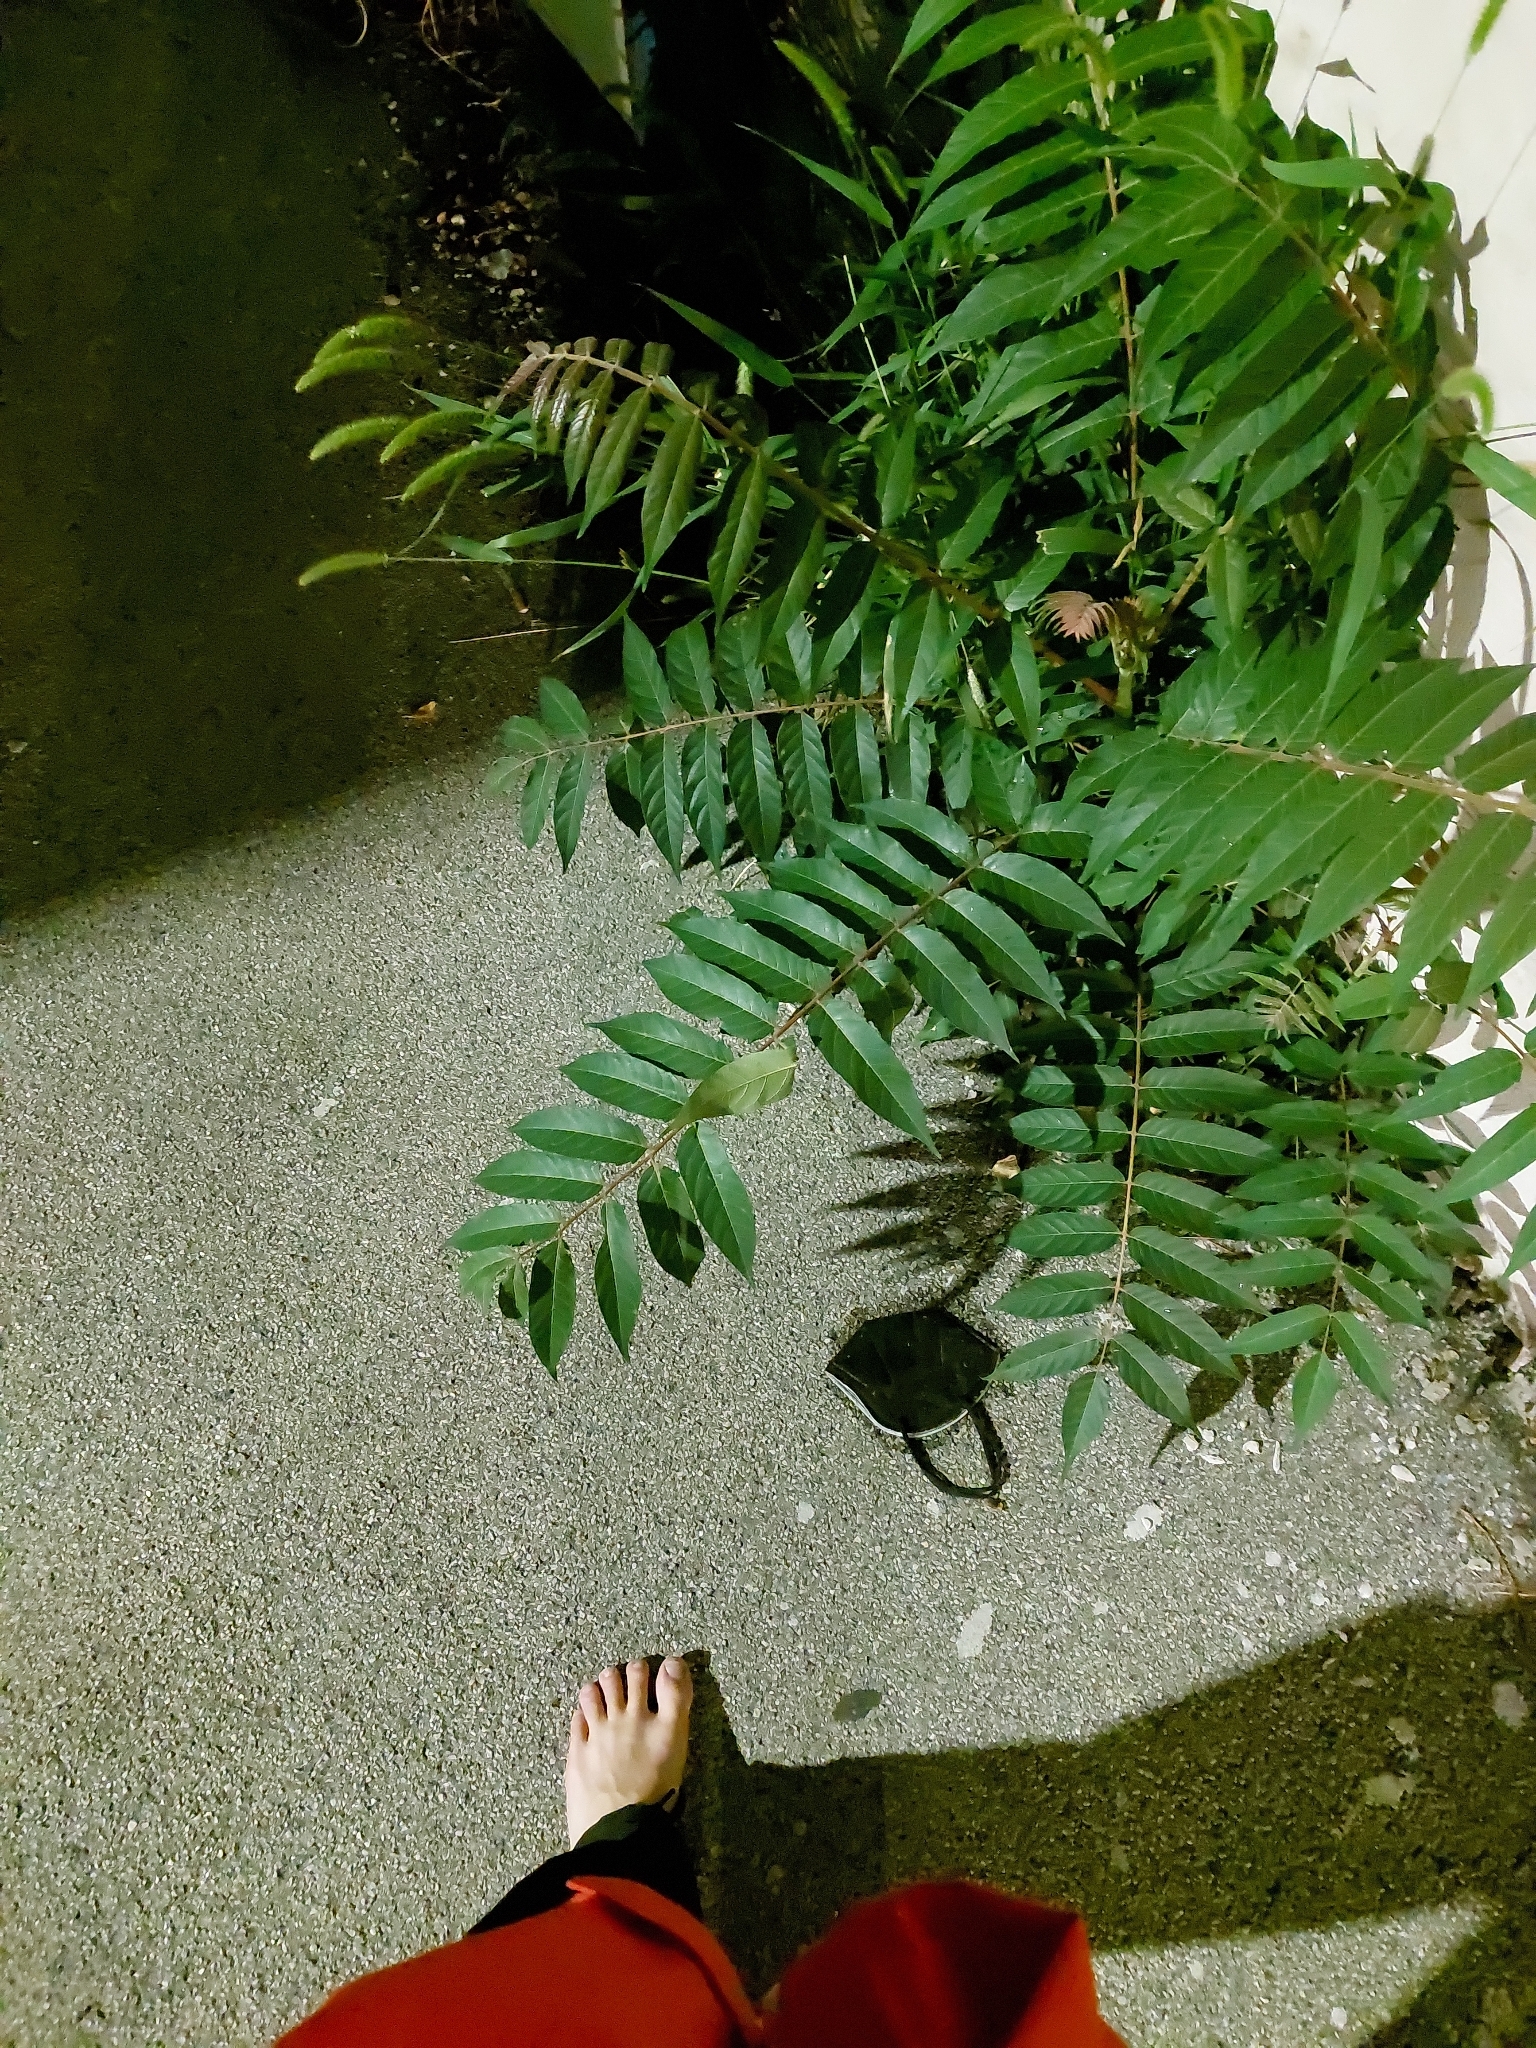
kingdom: Plantae
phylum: Tracheophyta
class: Magnoliopsida
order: Sapindales
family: Simaroubaceae
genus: Ailanthus
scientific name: Ailanthus altissima
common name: Tree-of-heaven
